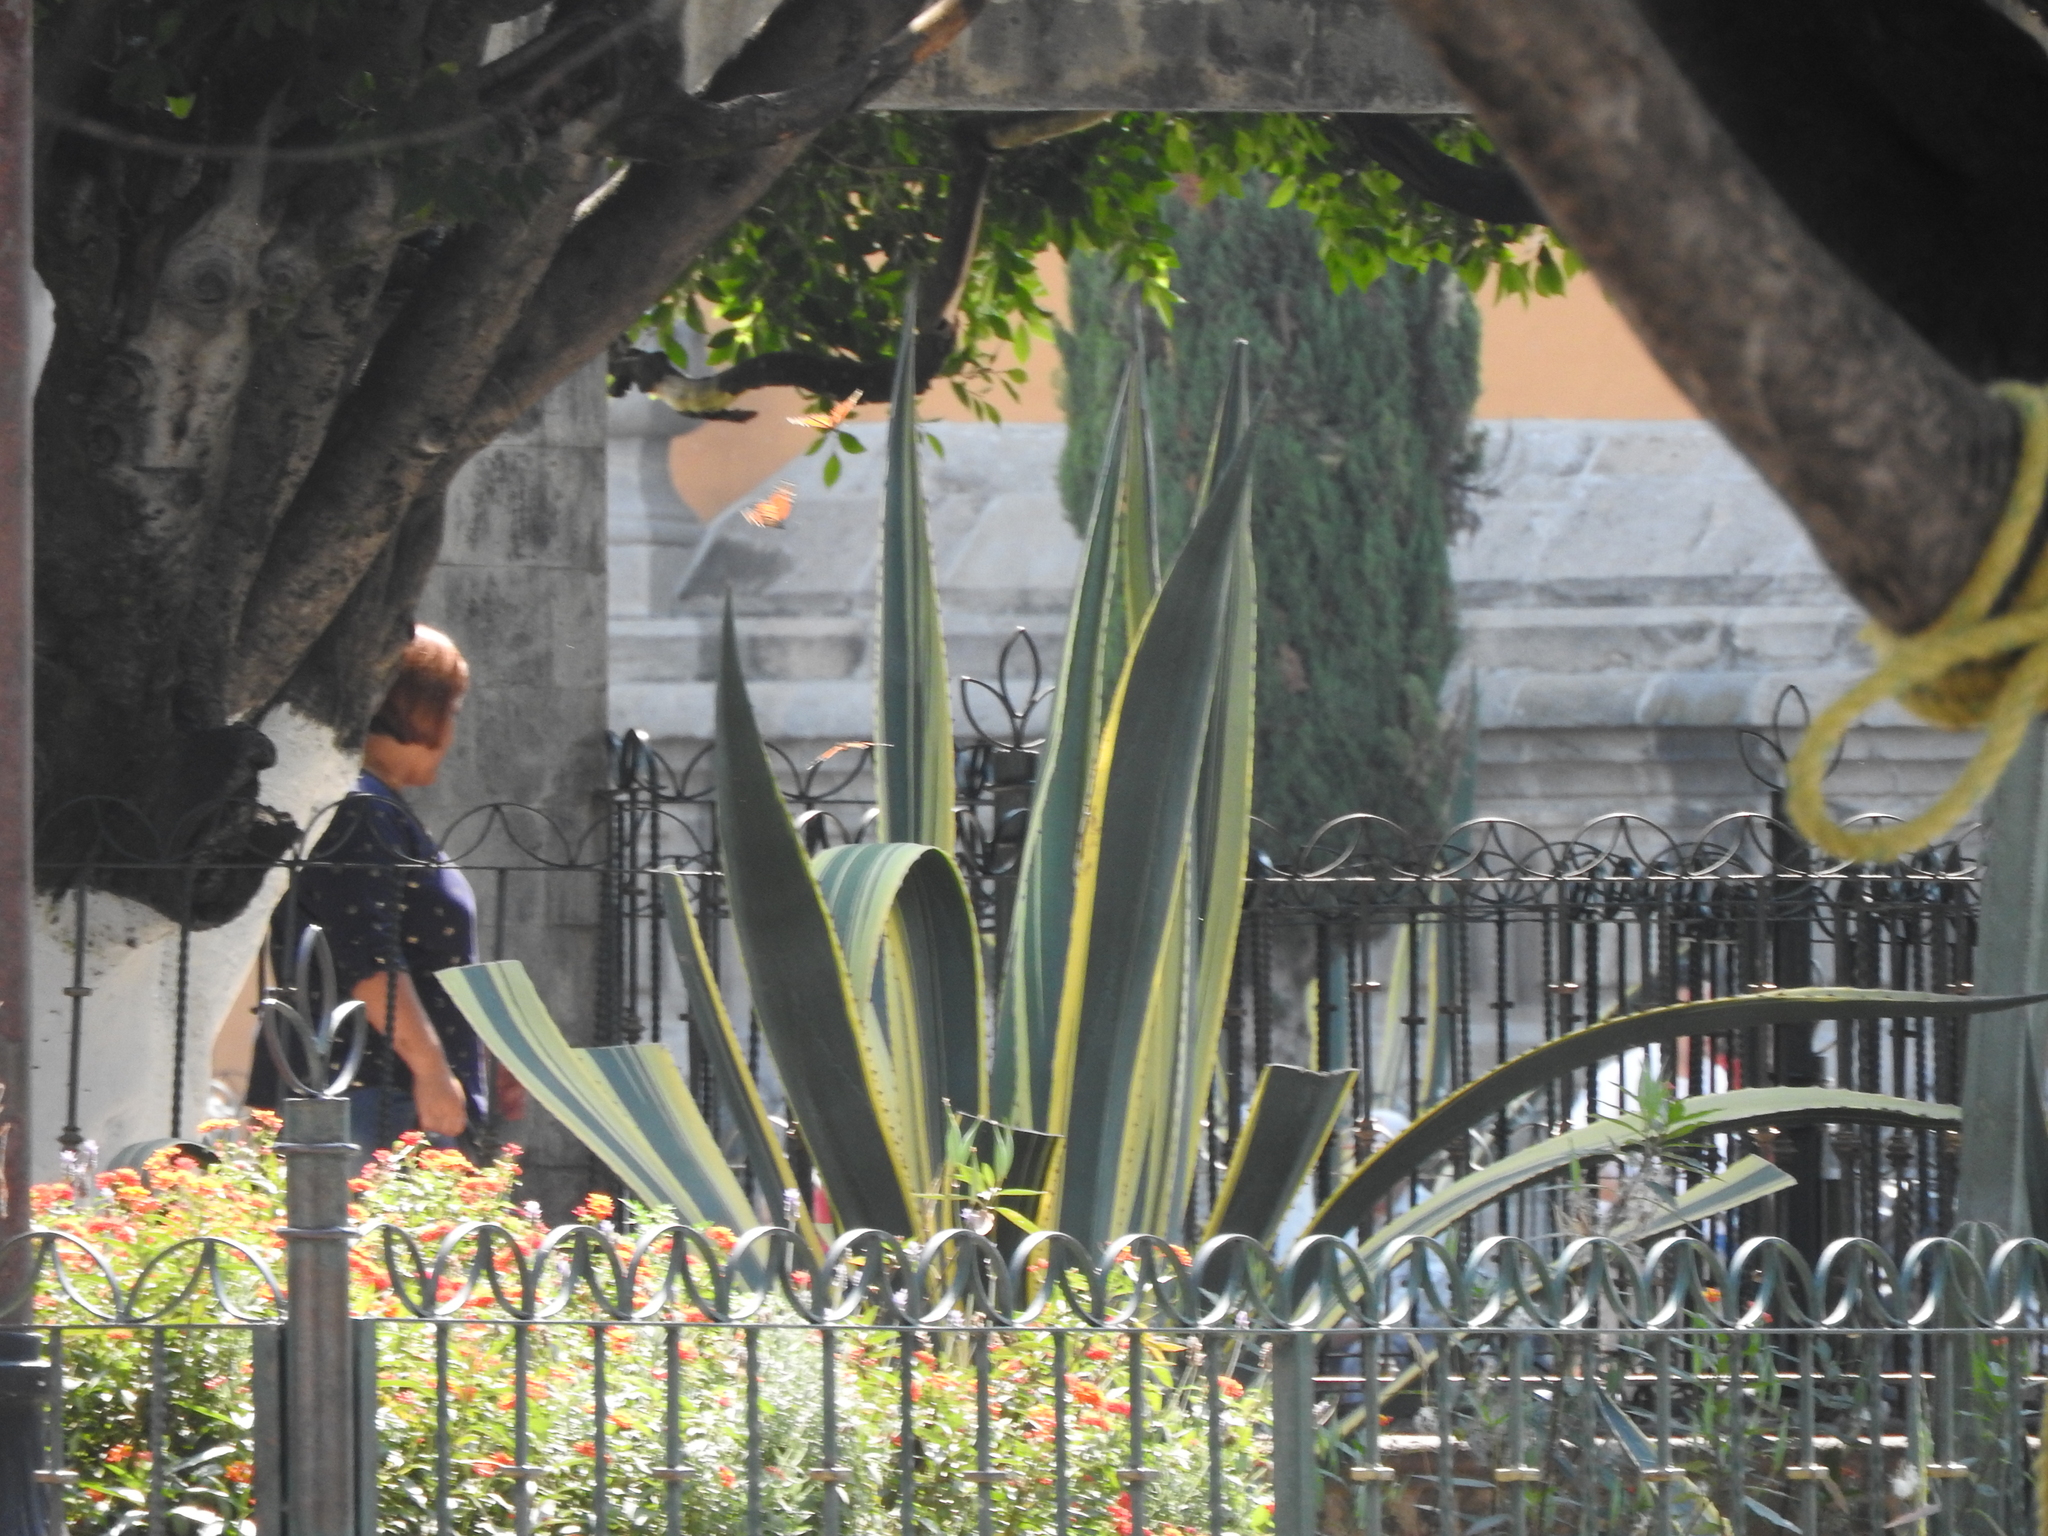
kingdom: Animalia
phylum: Arthropoda
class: Insecta
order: Lepidoptera
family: Nymphalidae
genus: Danaus
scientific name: Danaus plexippus
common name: Monarch
